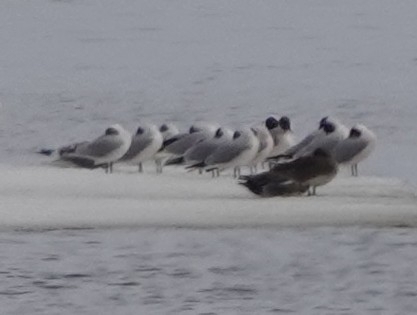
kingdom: Animalia
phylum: Chordata
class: Aves
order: Charadriiformes
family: Laridae
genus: Chroicocephalus
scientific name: Chroicocephalus ridibundus
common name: Black-headed gull
